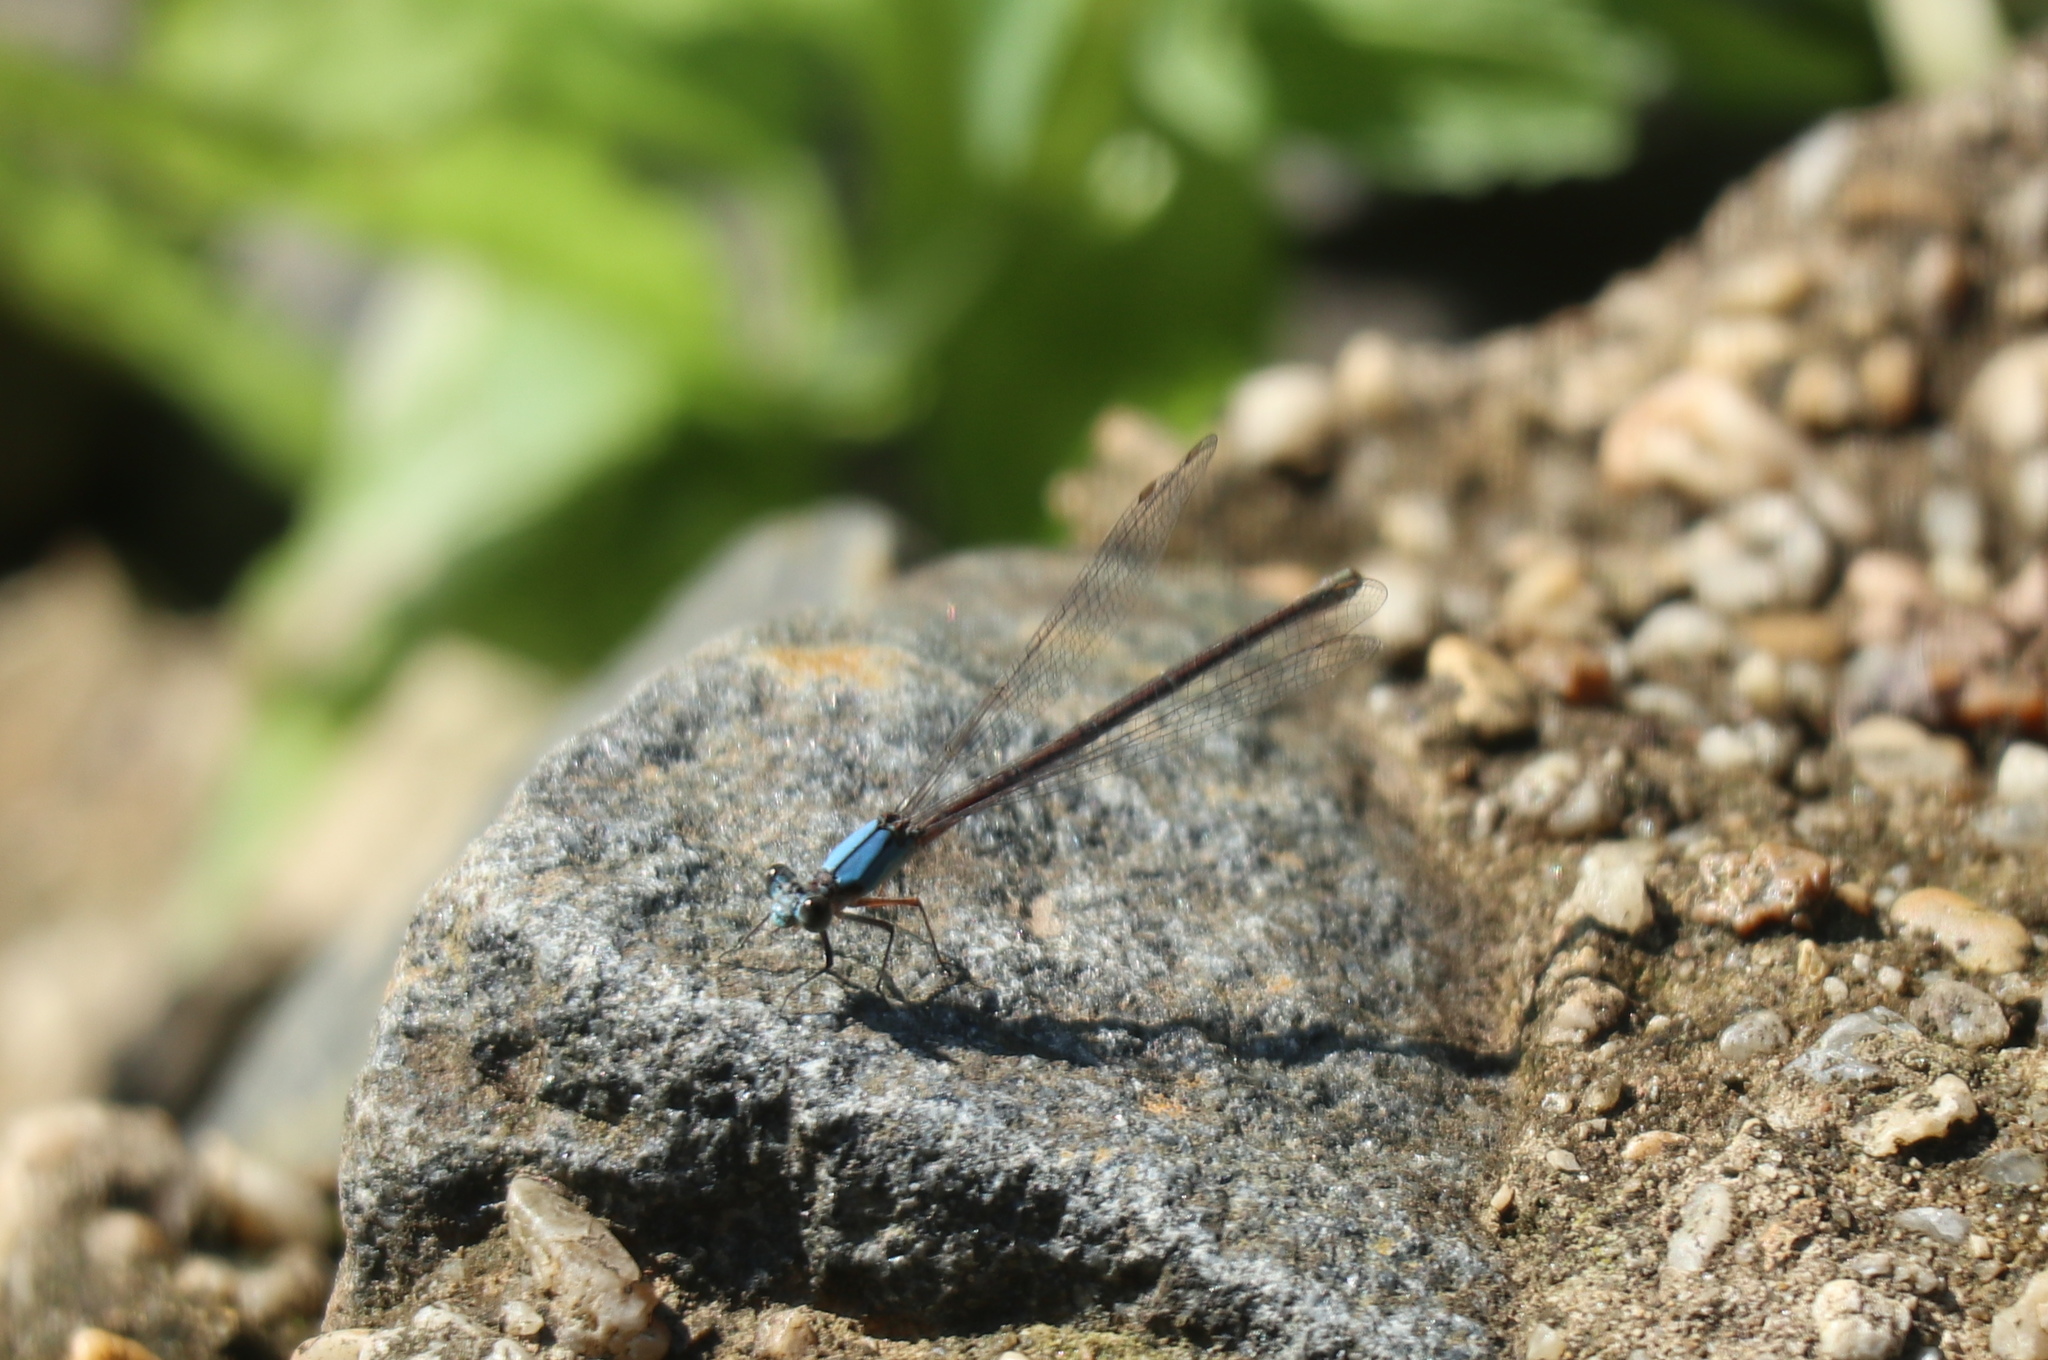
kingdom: Animalia
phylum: Arthropoda
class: Insecta
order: Odonata
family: Coenagrionidae
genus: Argia
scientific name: Argia apicalis
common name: Blue-fronted dancer
